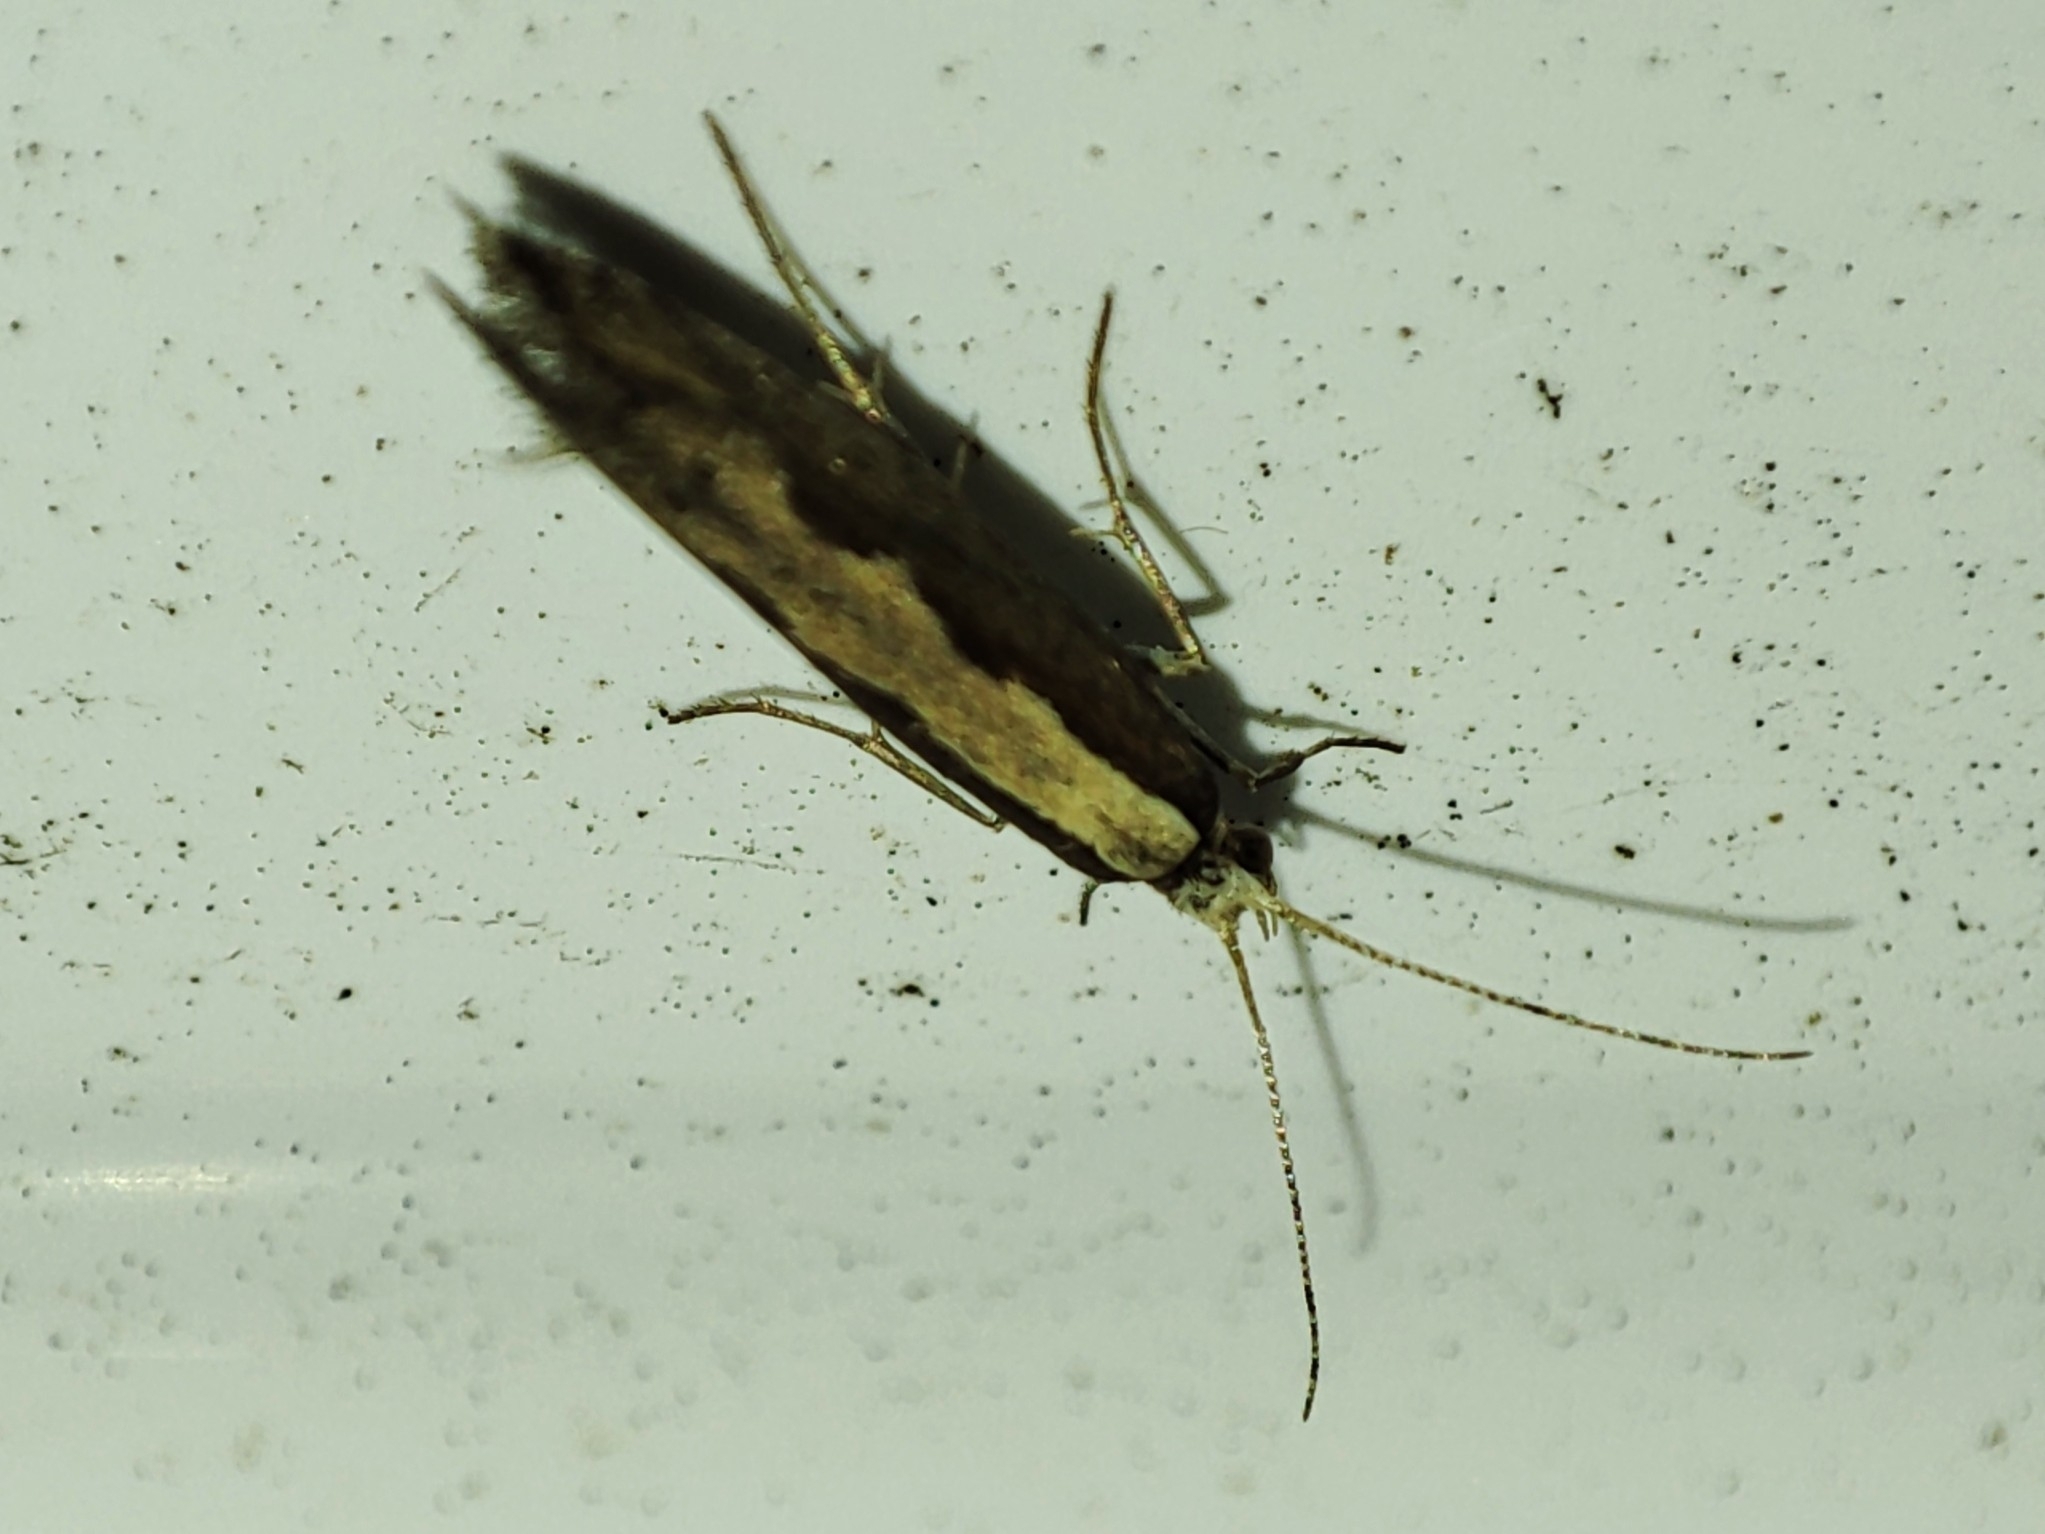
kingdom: Animalia
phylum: Arthropoda
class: Insecta
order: Lepidoptera
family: Plutellidae
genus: Plutella
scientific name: Plutella xylostella
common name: Diamond-back moth
